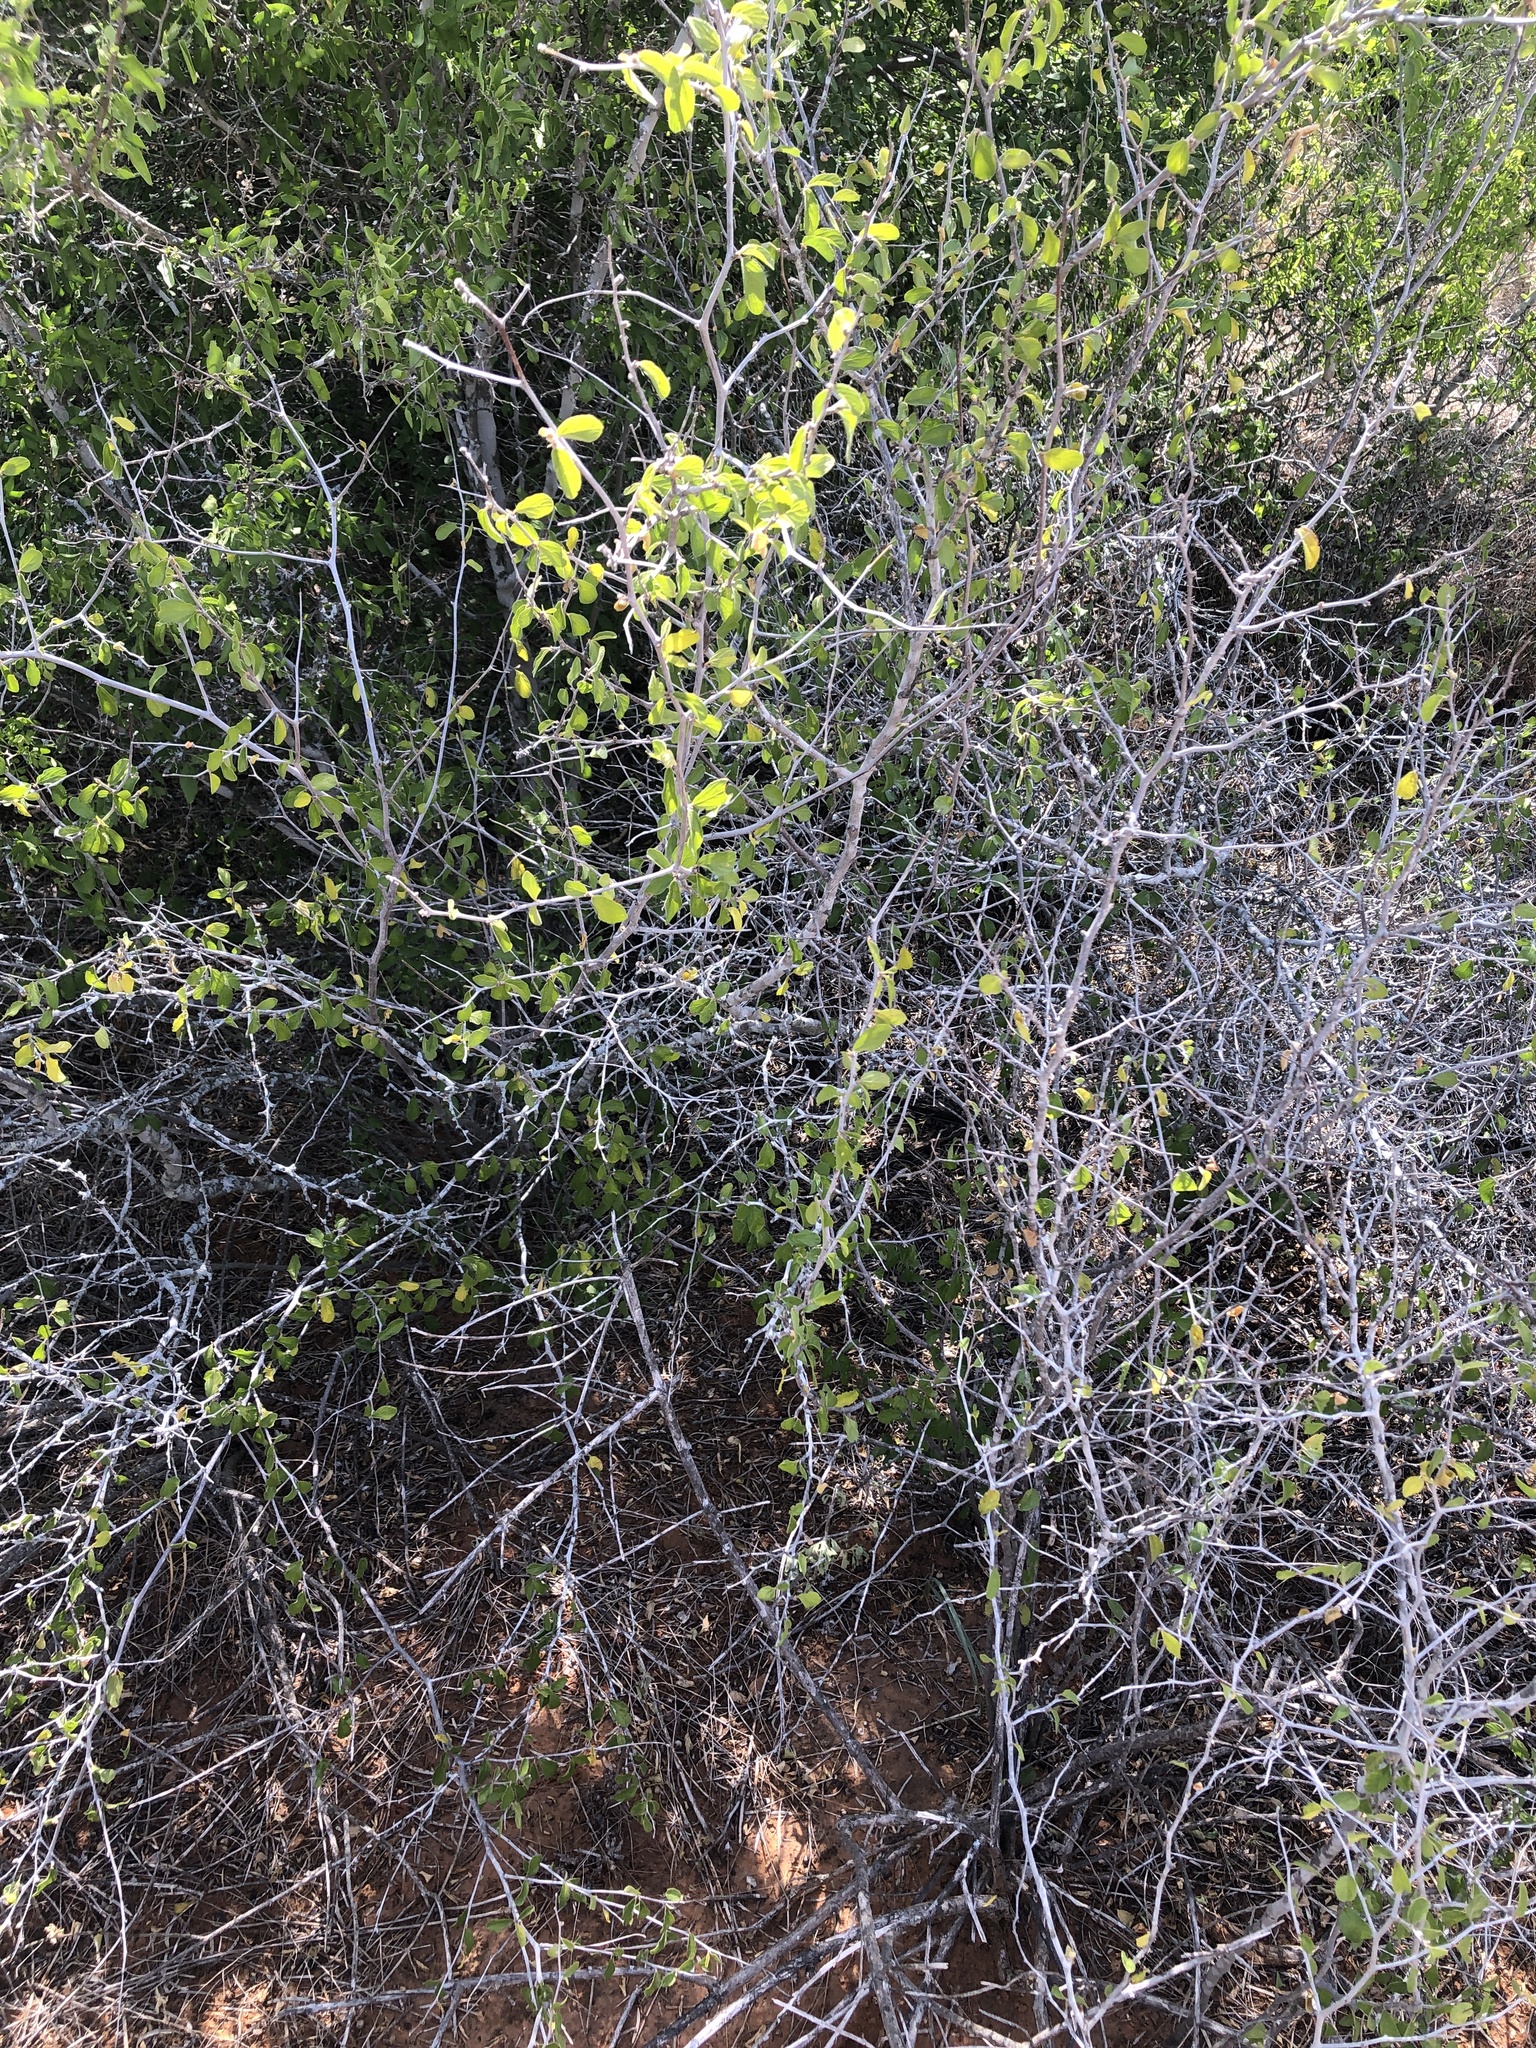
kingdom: Plantae
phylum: Tracheophyta
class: Magnoliopsida
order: Rosales
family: Rhamnaceae
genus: Colubrina
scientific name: Colubrina texensis
